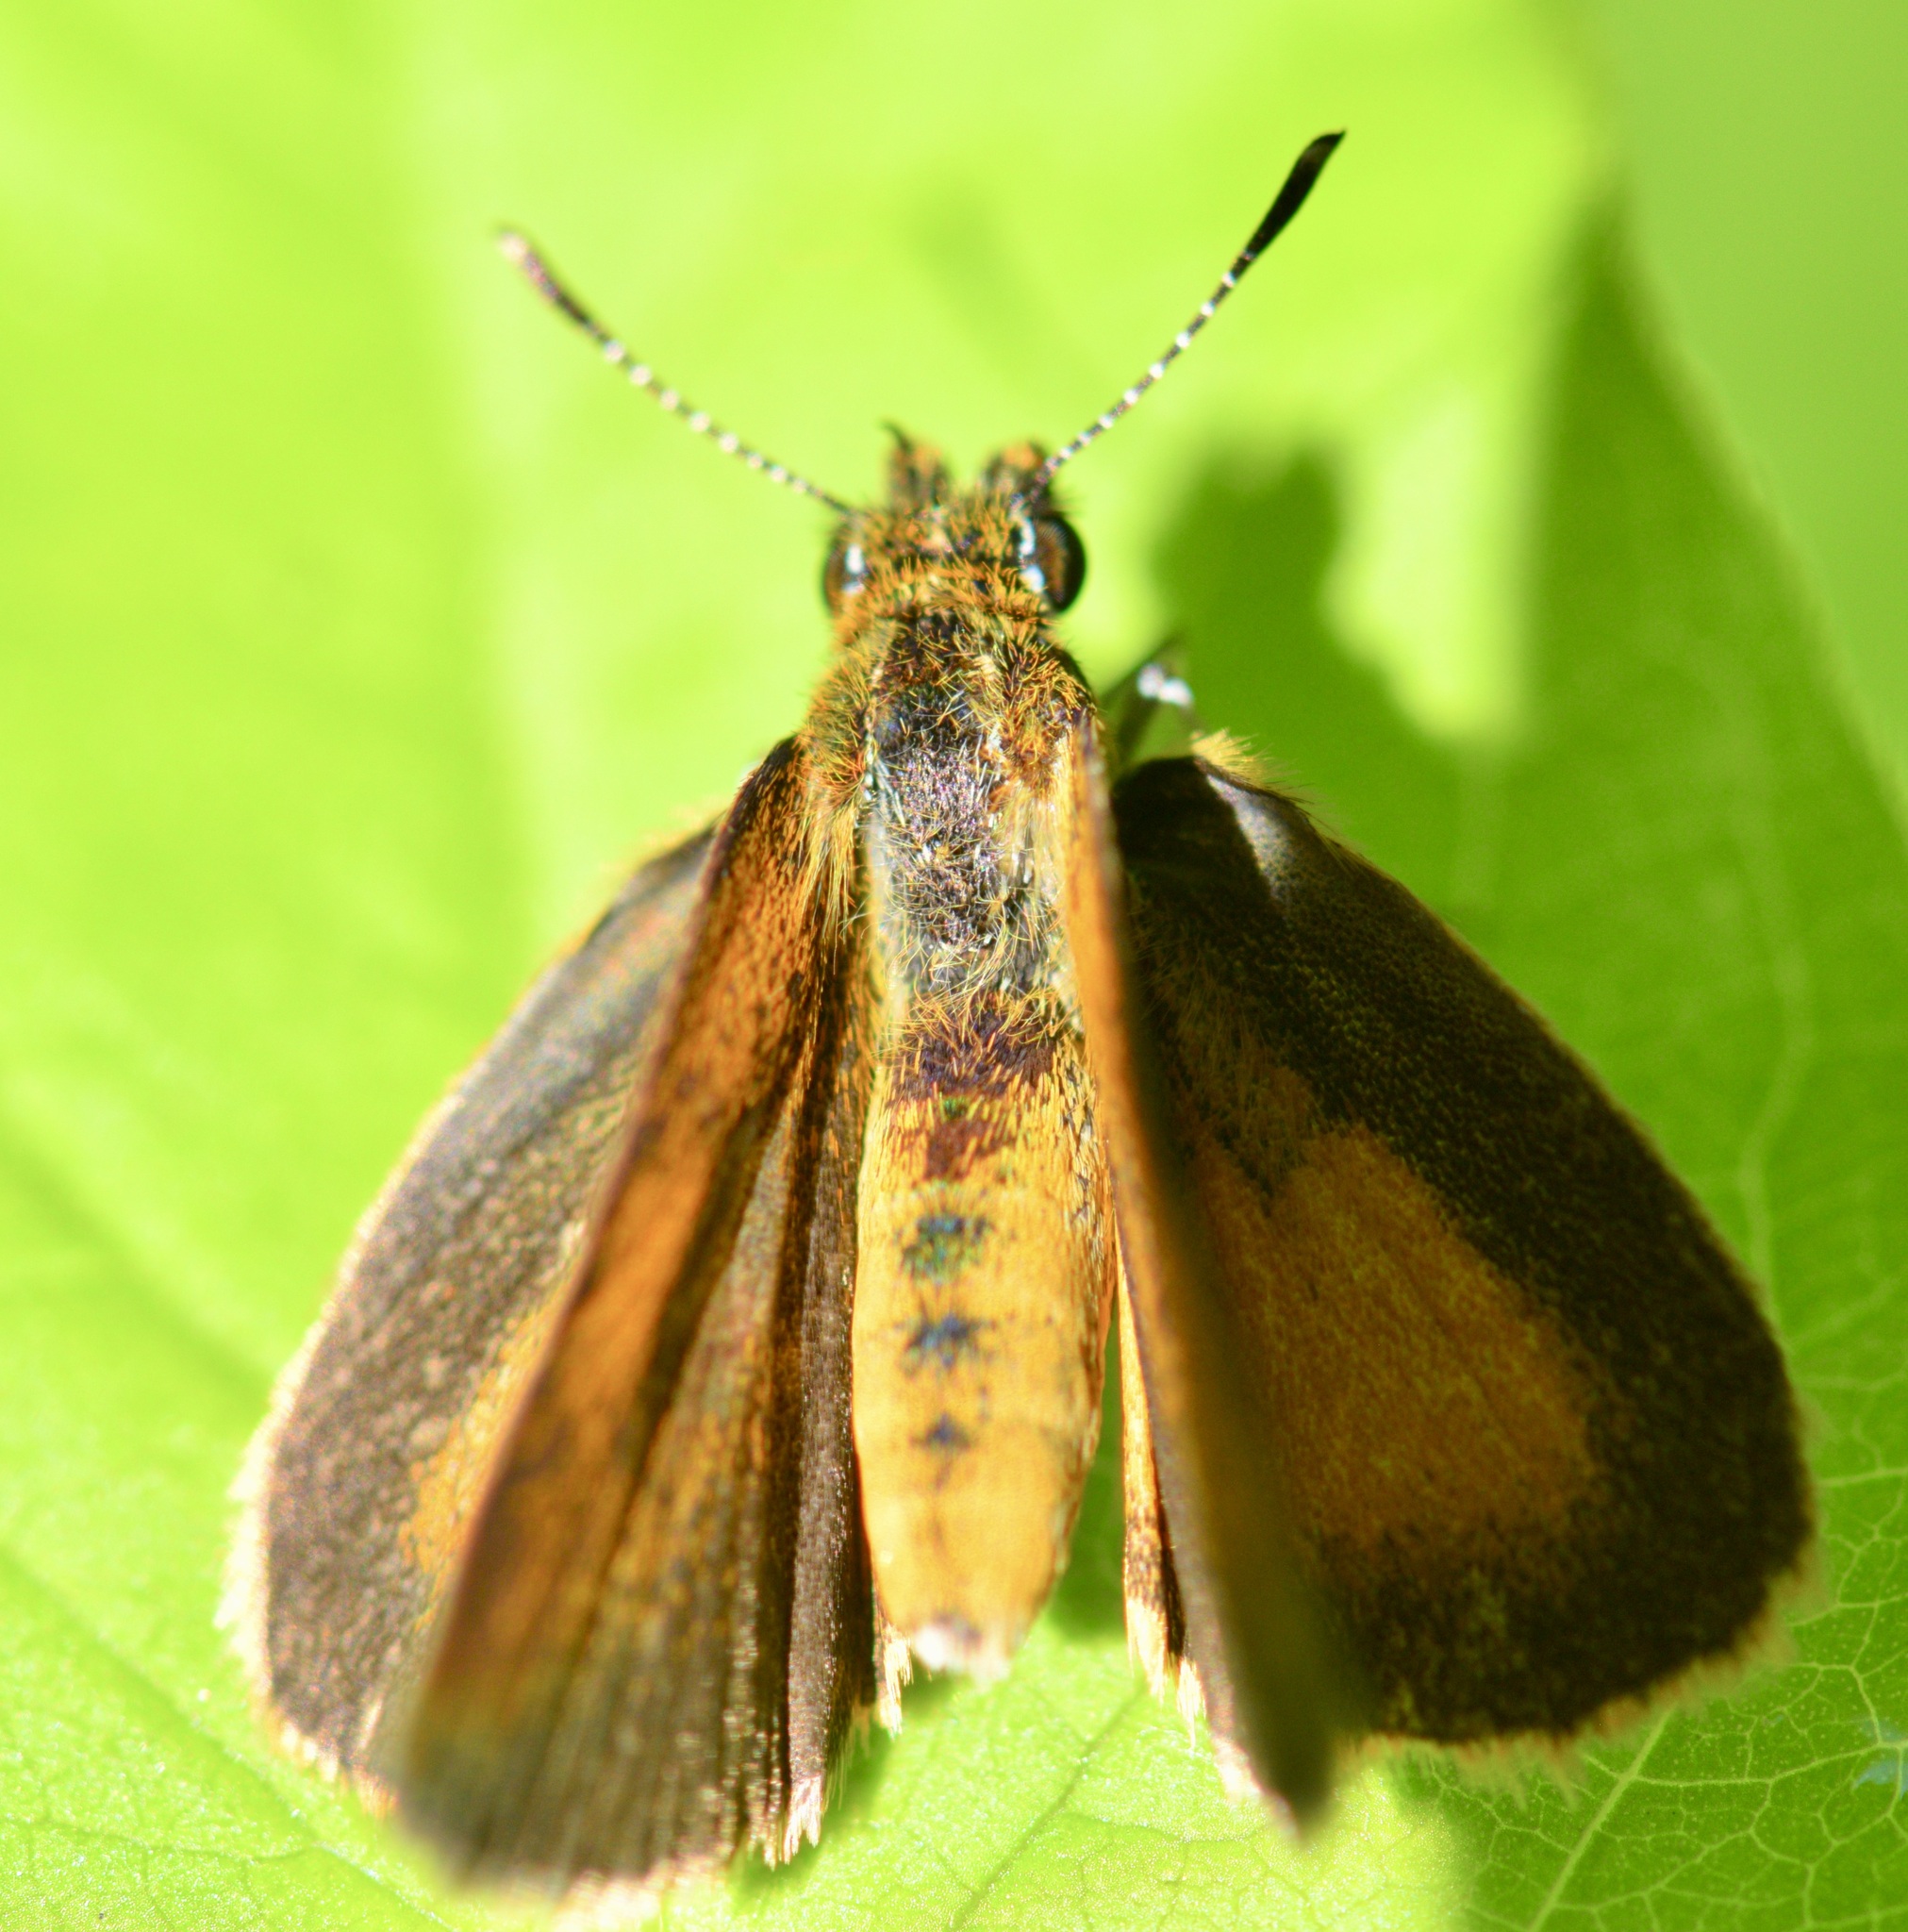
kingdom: Animalia
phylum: Arthropoda
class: Insecta
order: Lepidoptera
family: Hesperiidae
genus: Ancyloxypha
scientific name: Ancyloxypha numitor
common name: Least skipper
